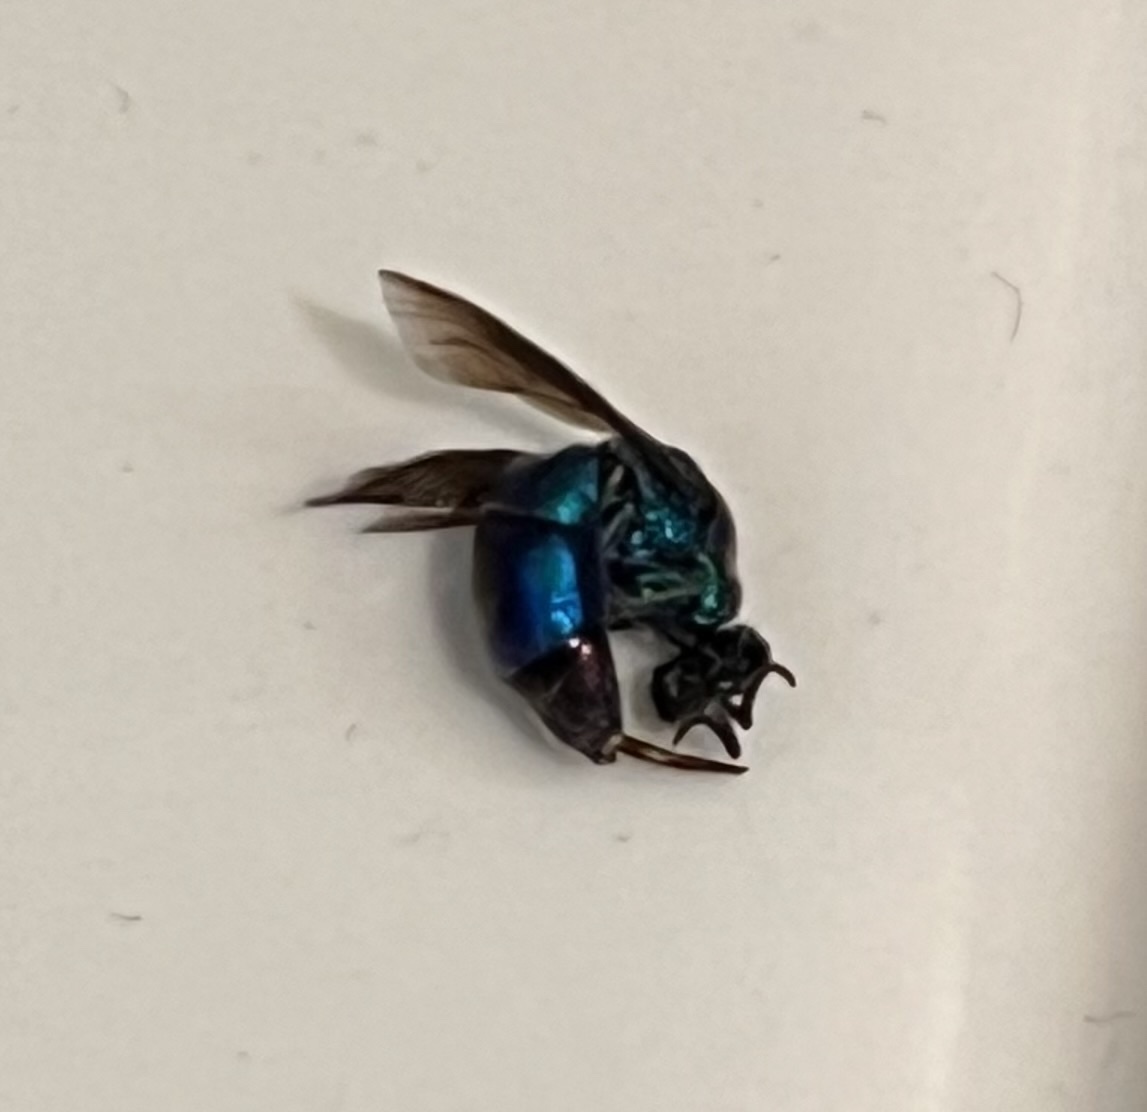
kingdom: Animalia
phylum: Arthropoda
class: Insecta
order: Hymenoptera
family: Chrysididae
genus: Chrysis
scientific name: Chrysis angolensis
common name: Cuckoo wasp
